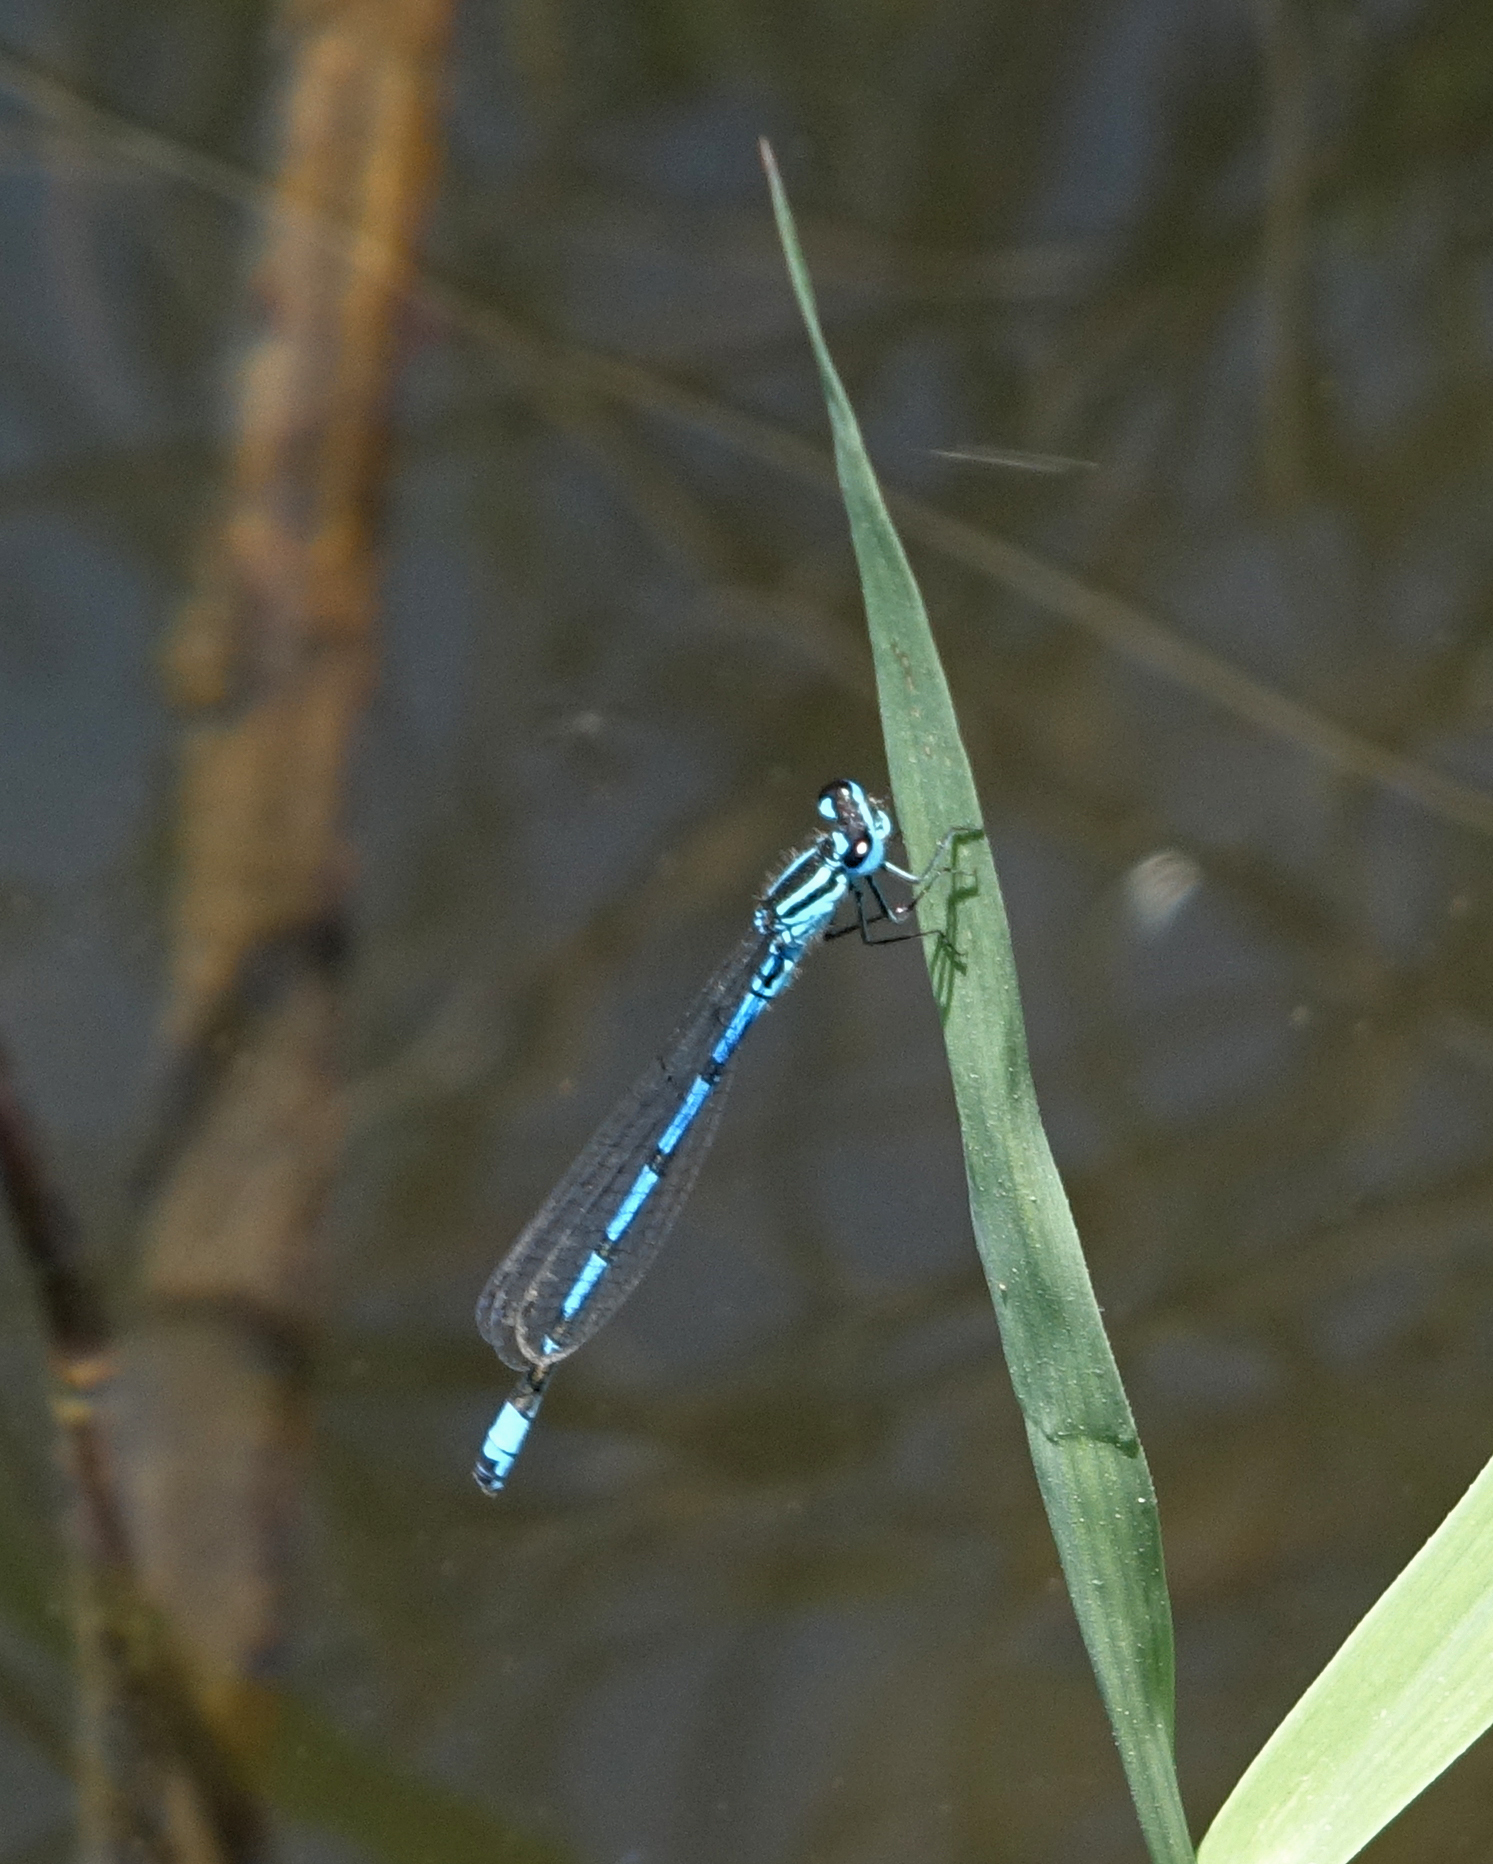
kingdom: Animalia
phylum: Arthropoda
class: Insecta
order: Odonata
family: Coenagrionidae
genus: Coenagrion
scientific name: Coenagrion puella
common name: Azure damselfly
